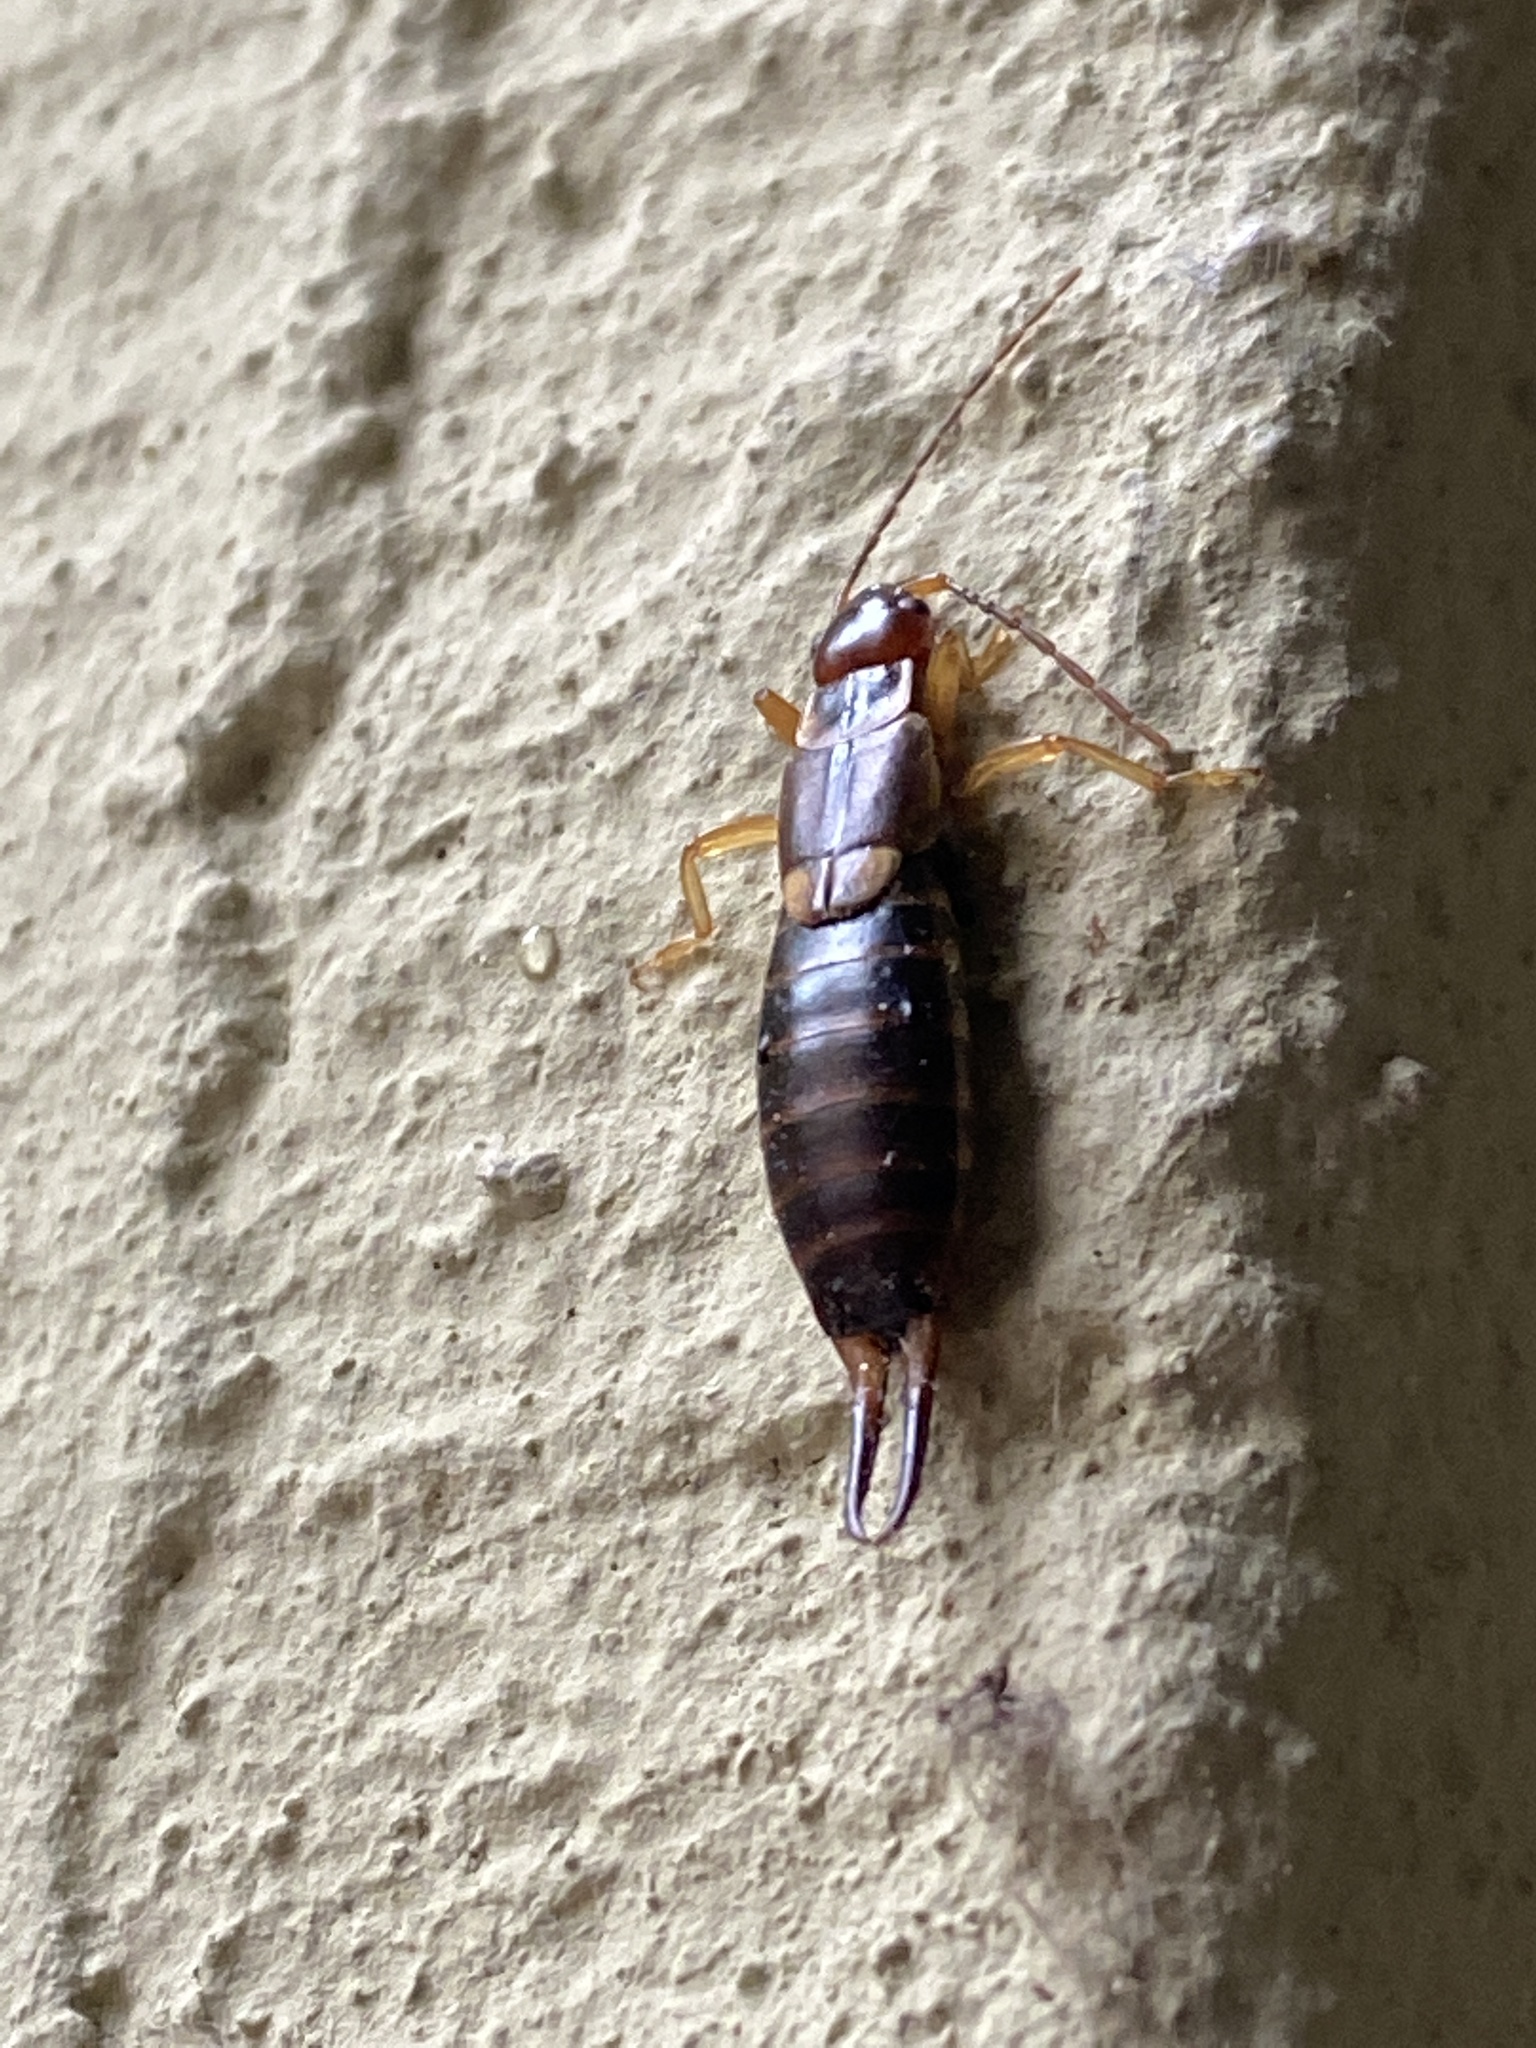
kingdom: Animalia
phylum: Arthropoda
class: Insecta
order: Dermaptera
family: Forficulidae
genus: Forficula
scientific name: Forficula
